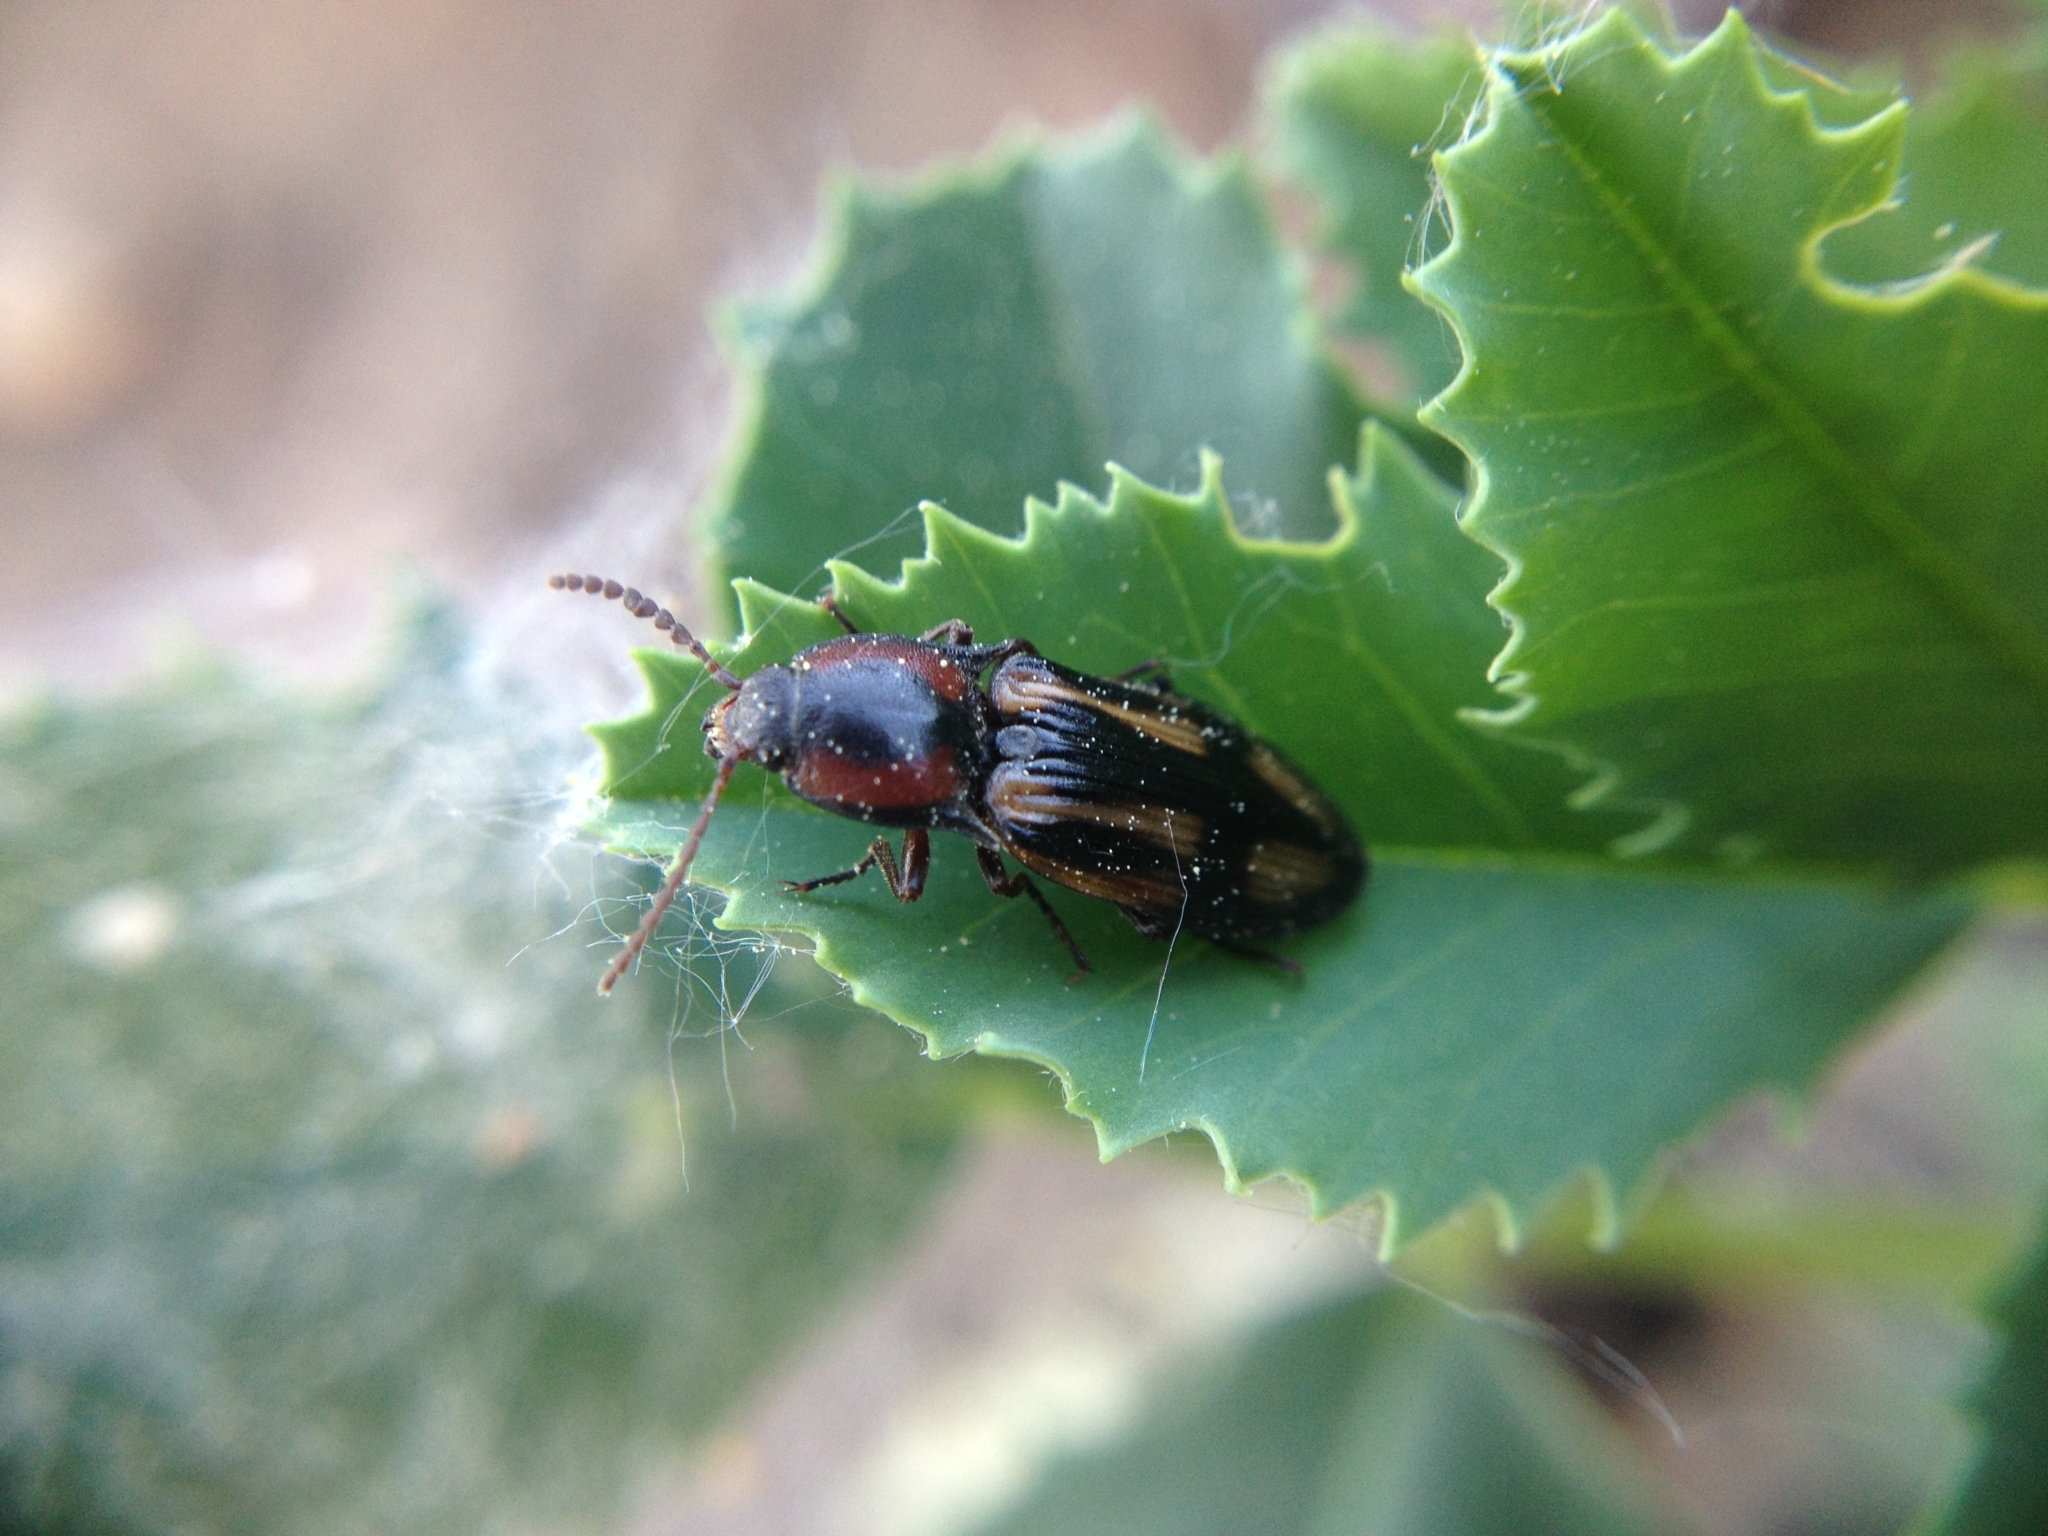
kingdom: Animalia
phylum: Arthropoda
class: Insecta
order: Coleoptera
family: Elateridae
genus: Selatosomus
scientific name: Selatosomus cruciatus
